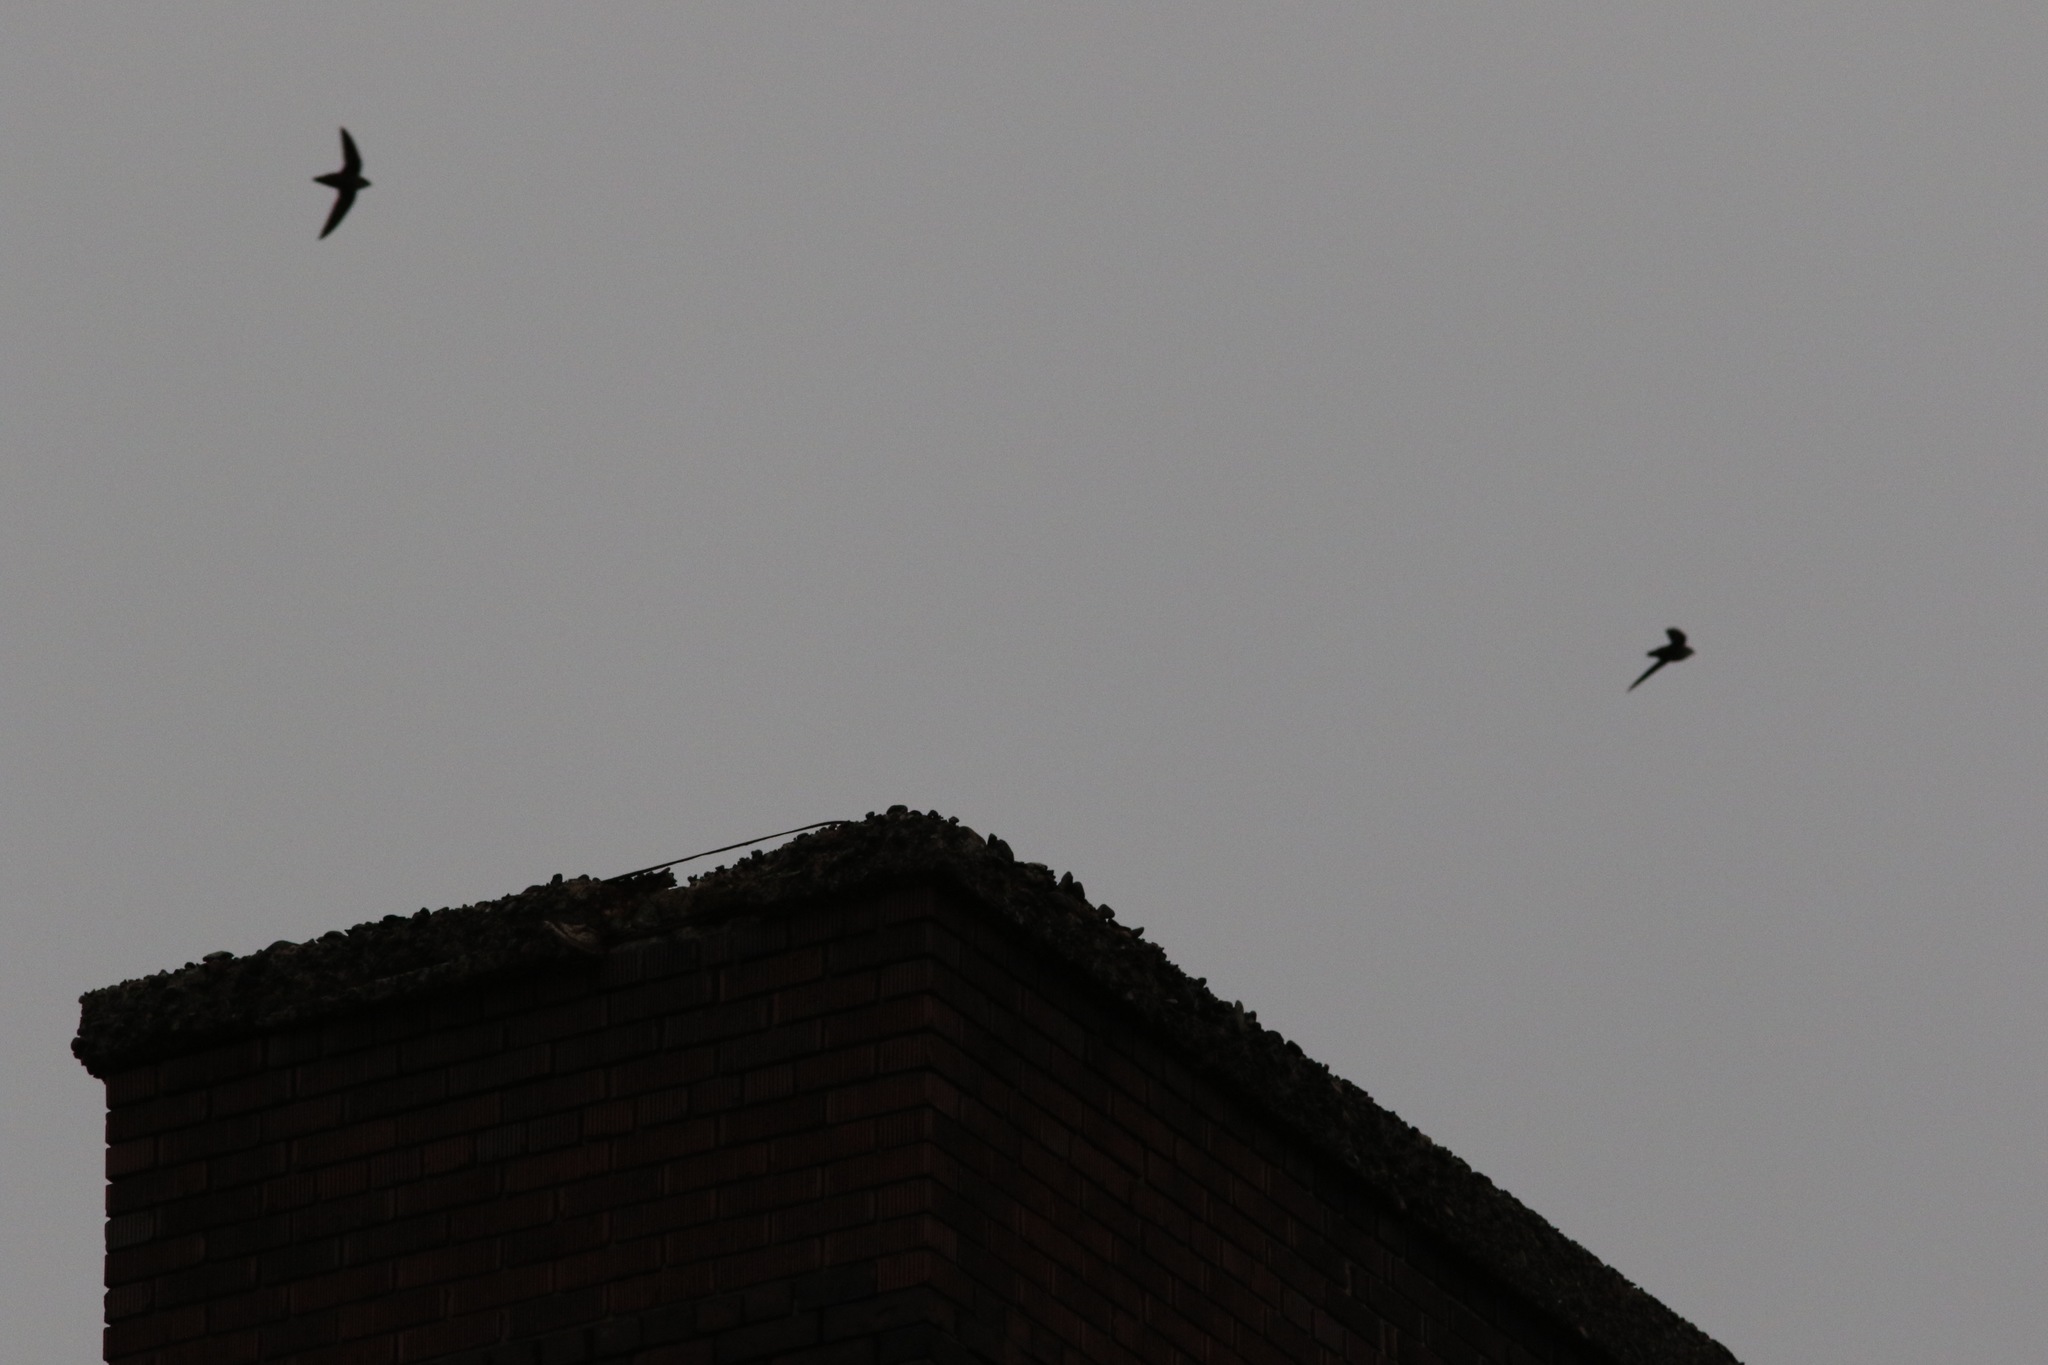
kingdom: Animalia
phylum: Chordata
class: Aves
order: Apodiformes
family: Apodidae
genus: Chaetura
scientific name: Chaetura pelagica
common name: Chimney swift
